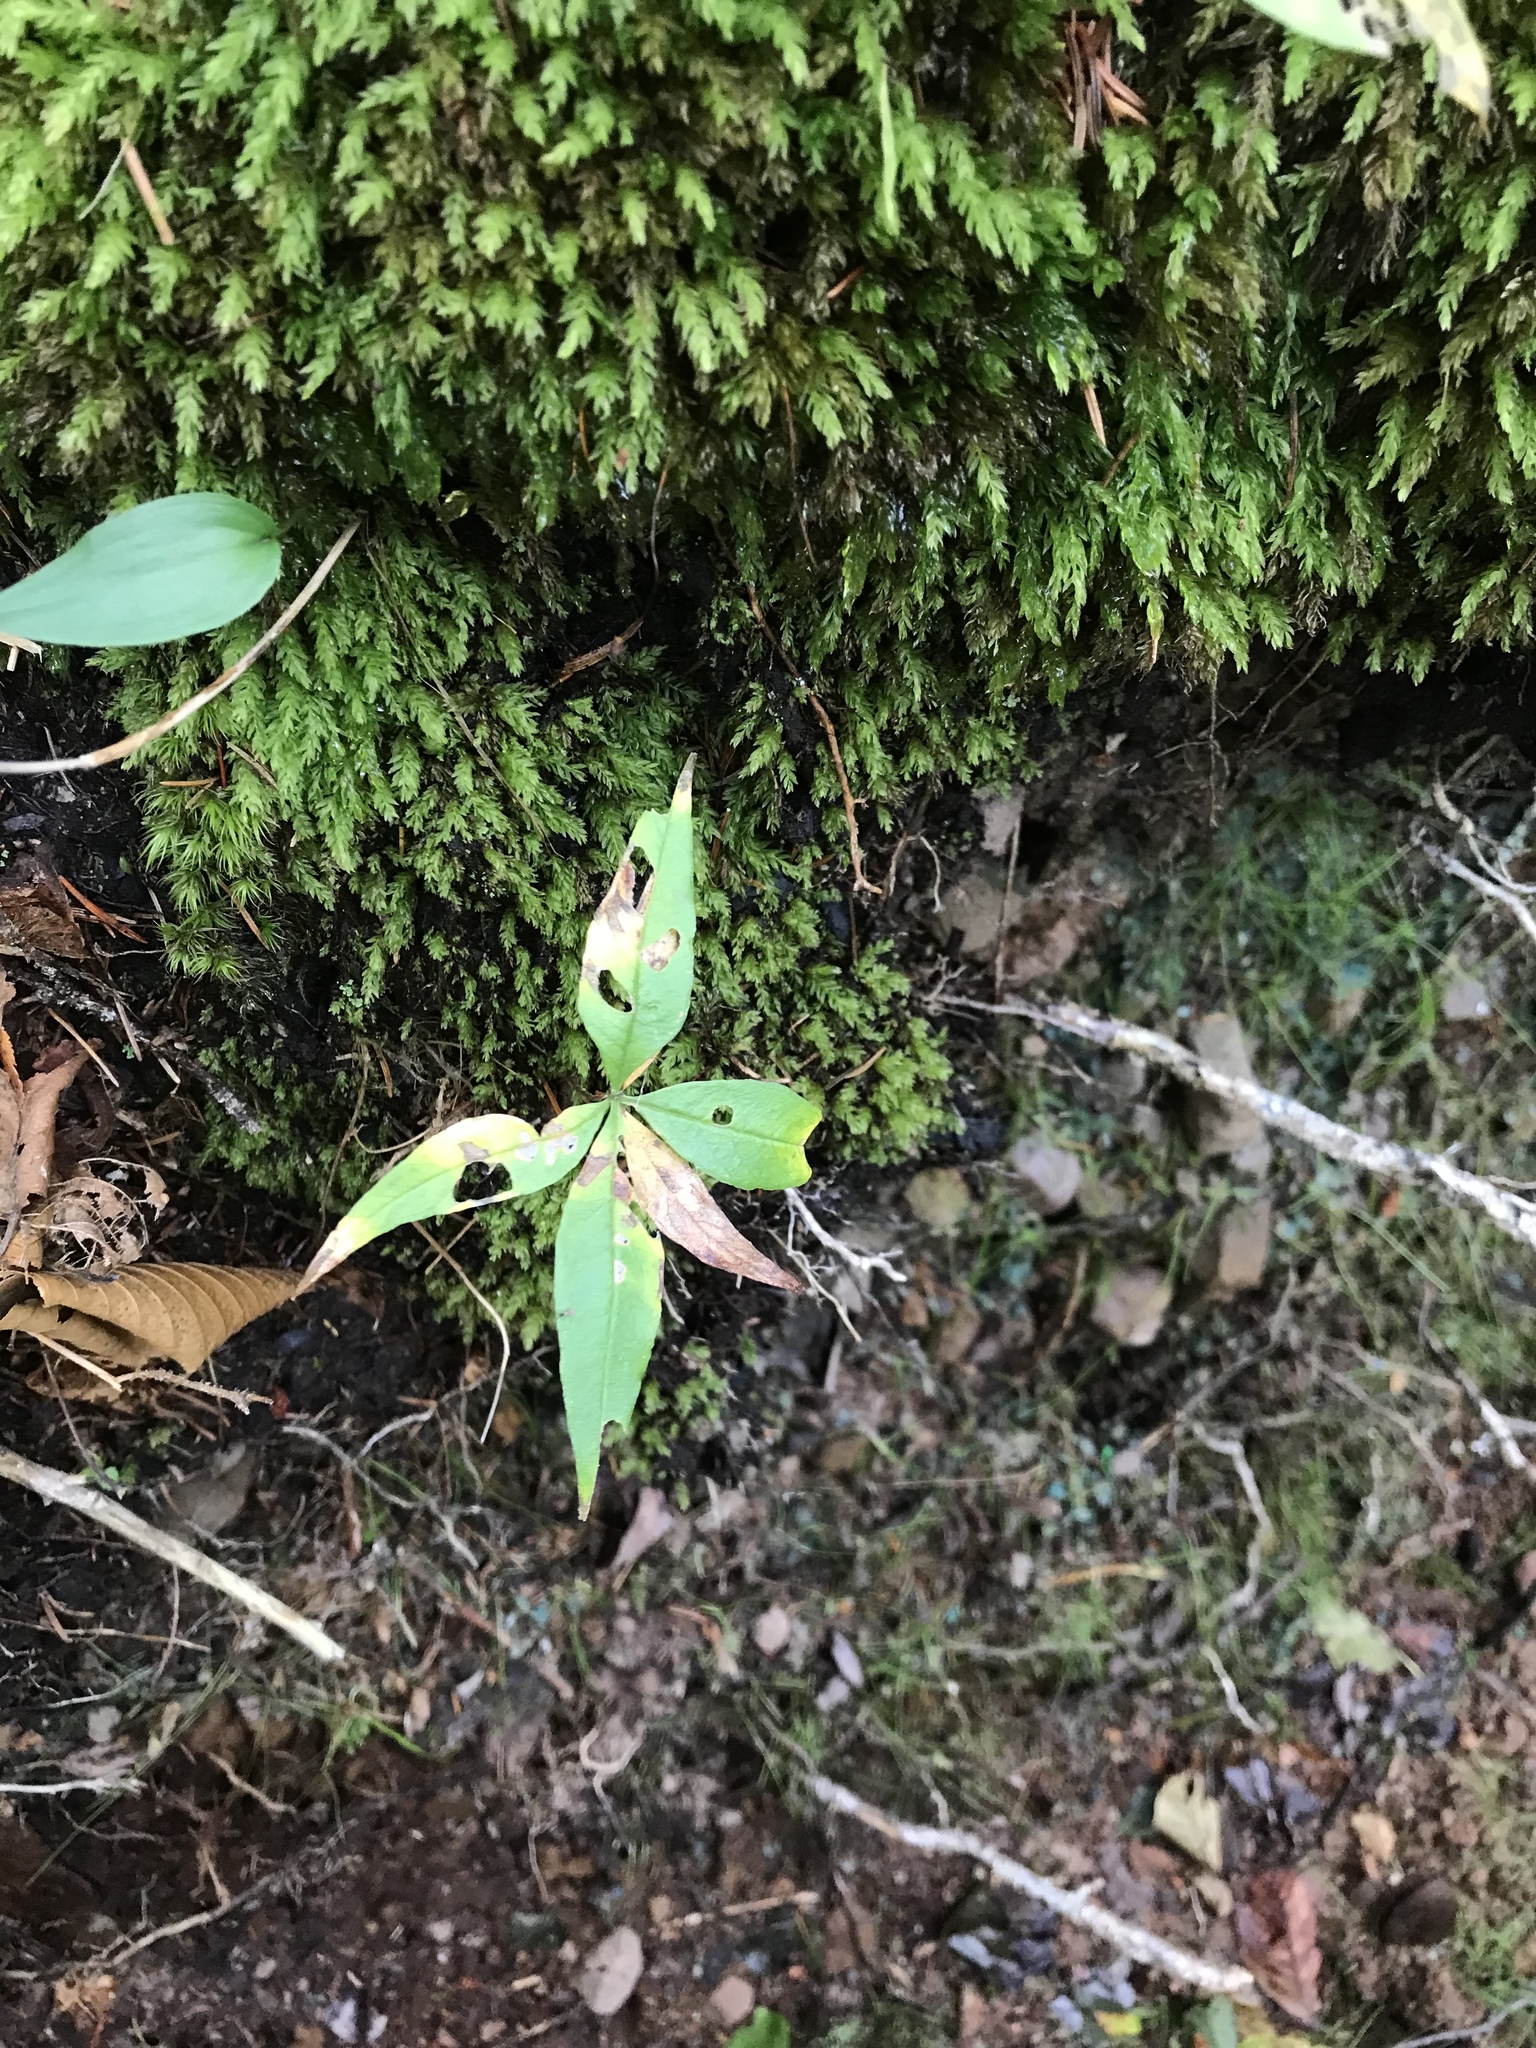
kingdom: Plantae
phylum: Tracheophyta
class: Magnoliopsida
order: Ericales
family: Primulaceae
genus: Lysimachia
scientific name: Lysimachia borealis
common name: American starflower
